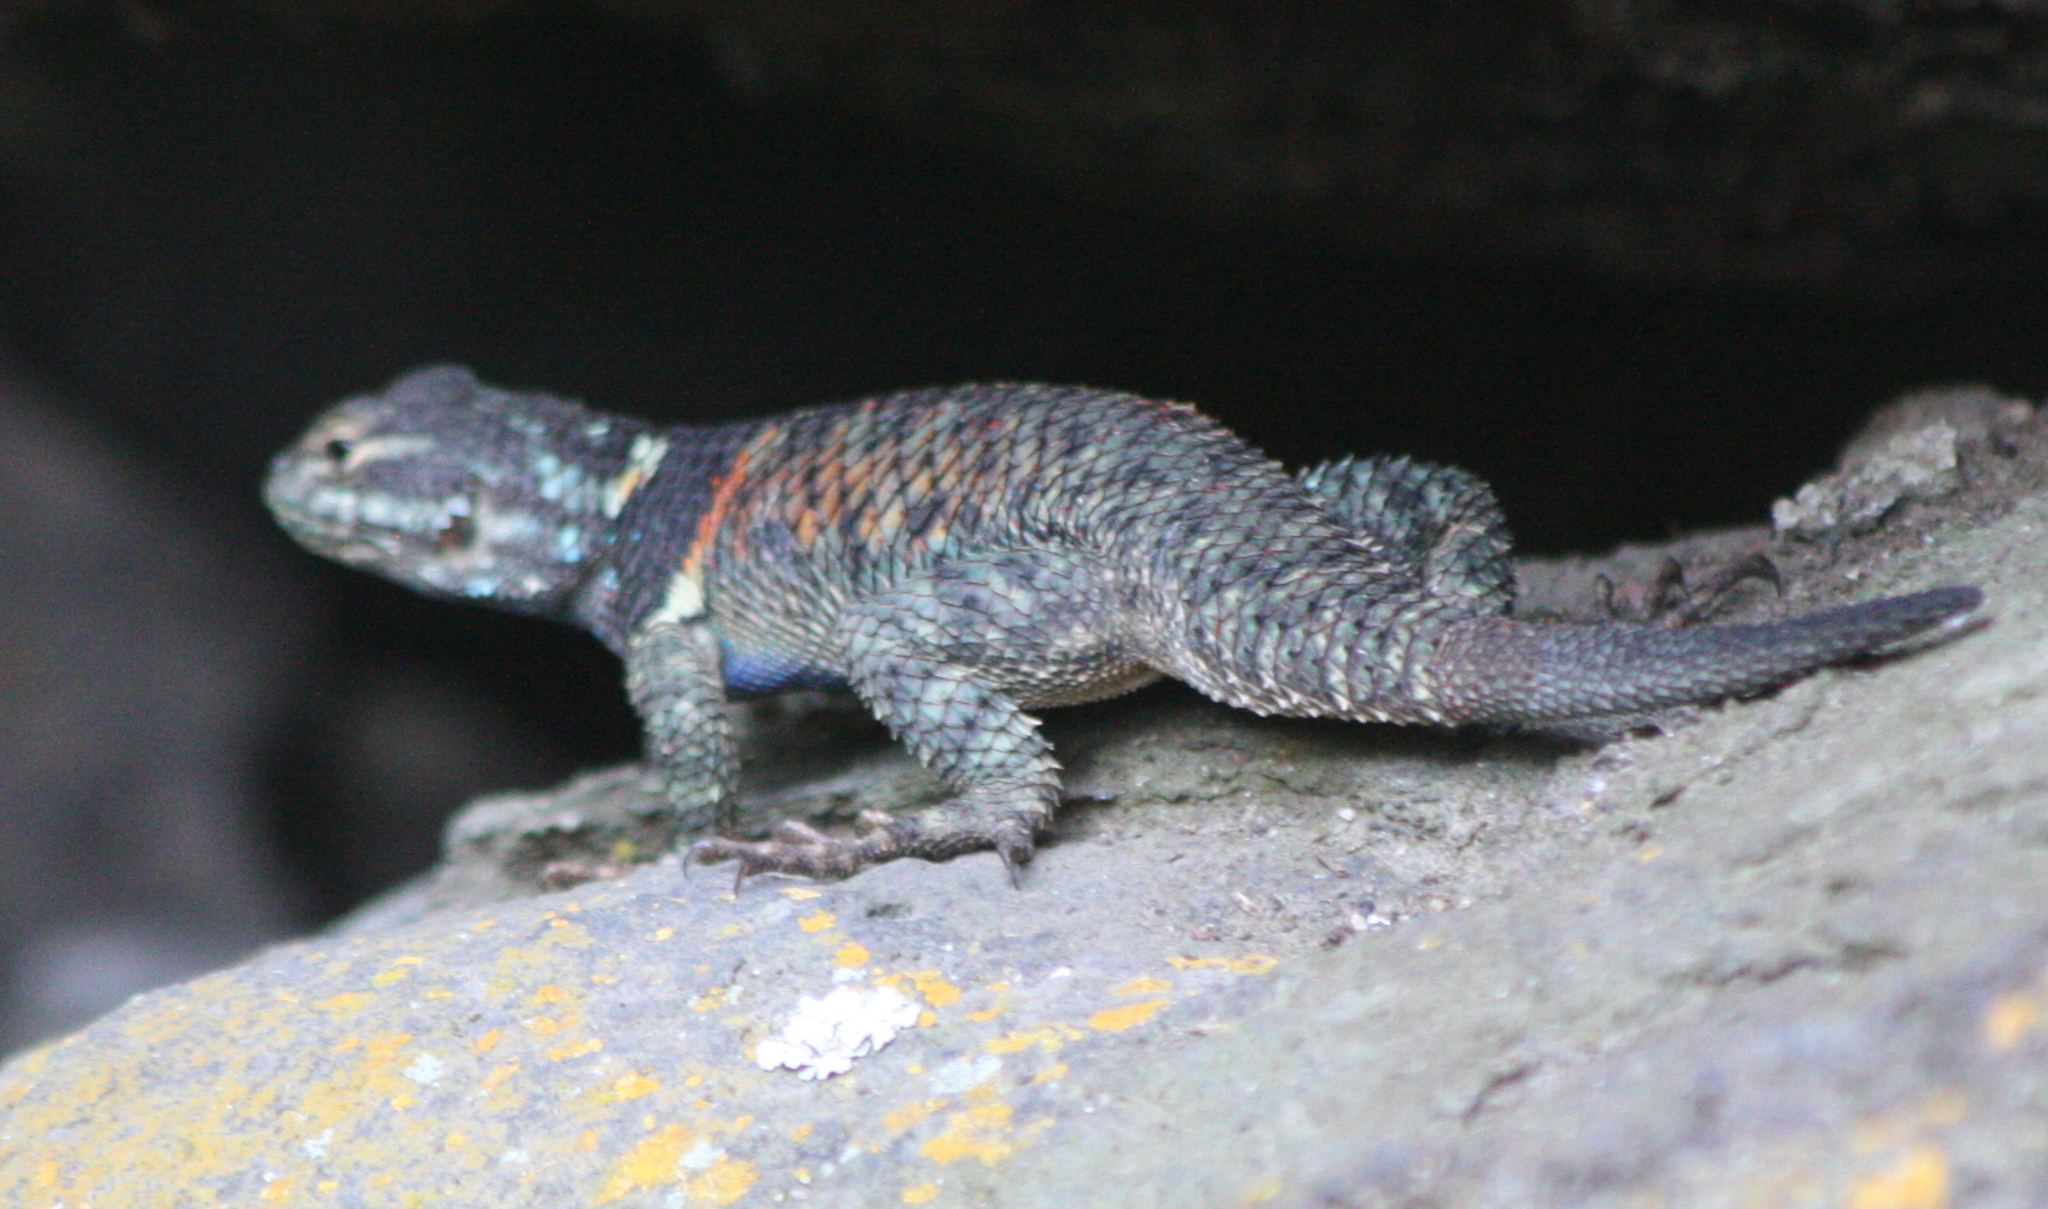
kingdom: Animalia
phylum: Chordata
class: Squamata
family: Phrynosomatidae
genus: Sceloporus
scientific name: Sceloporus torquatus
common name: Central plateau torquate lizard [melanogaster]
